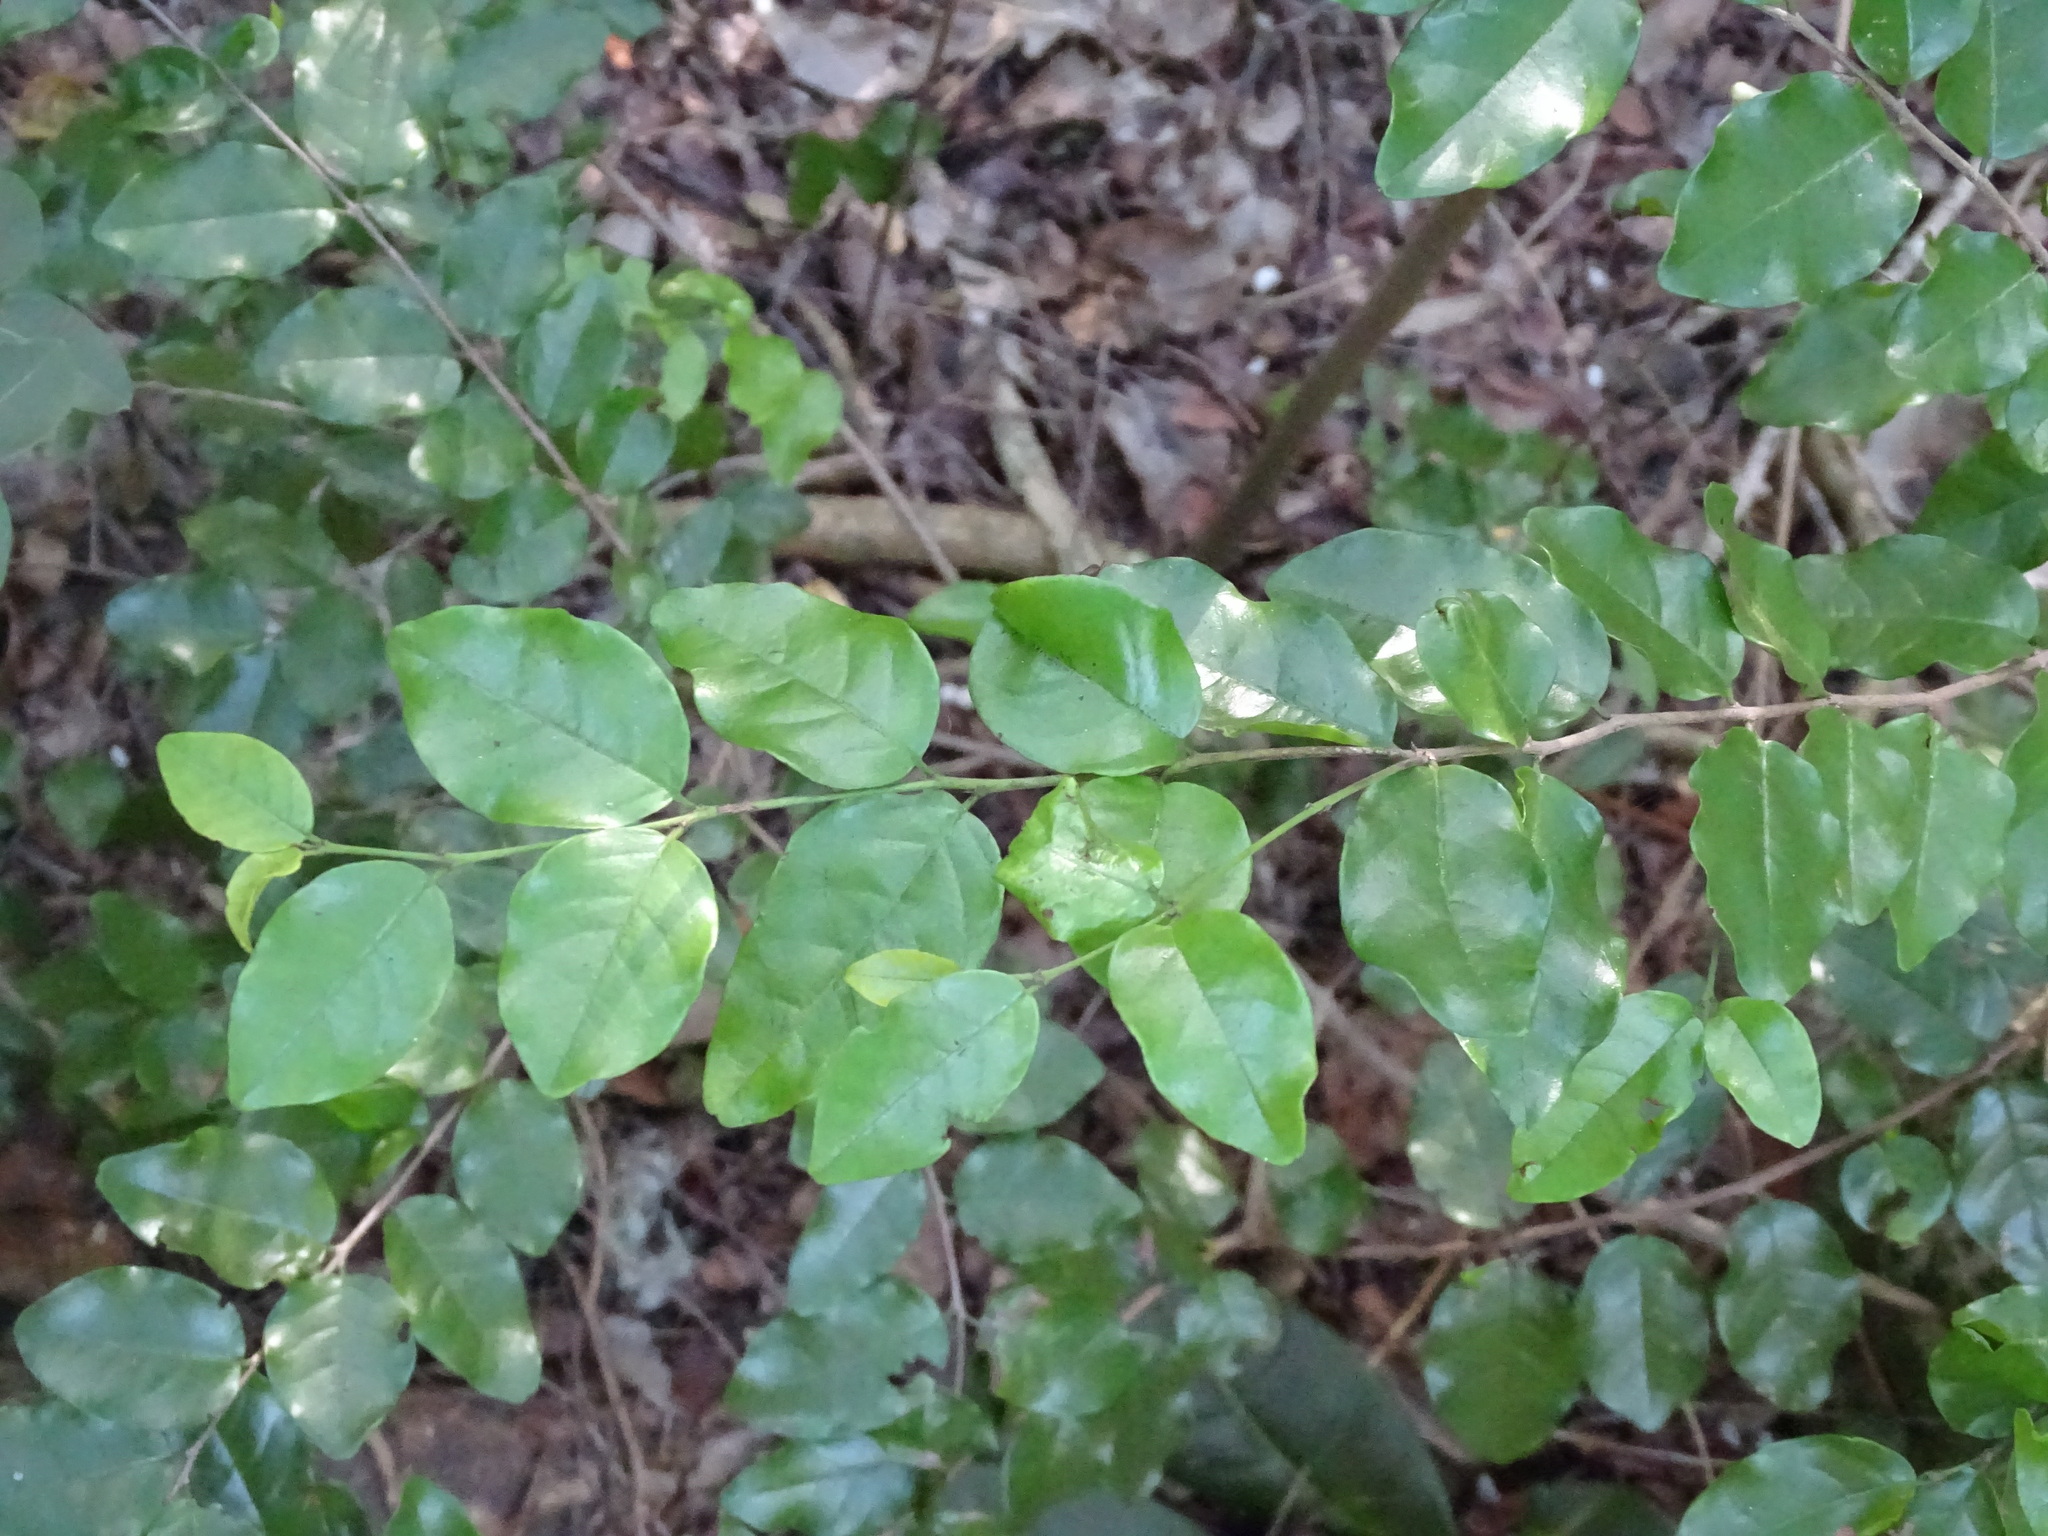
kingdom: Plantae
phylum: Tracheophyta
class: Magnoliopsida
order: Rosales
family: Rhamnaceae
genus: Krugiodendron
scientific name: Krugiodendron ferreum
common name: Iron wood
